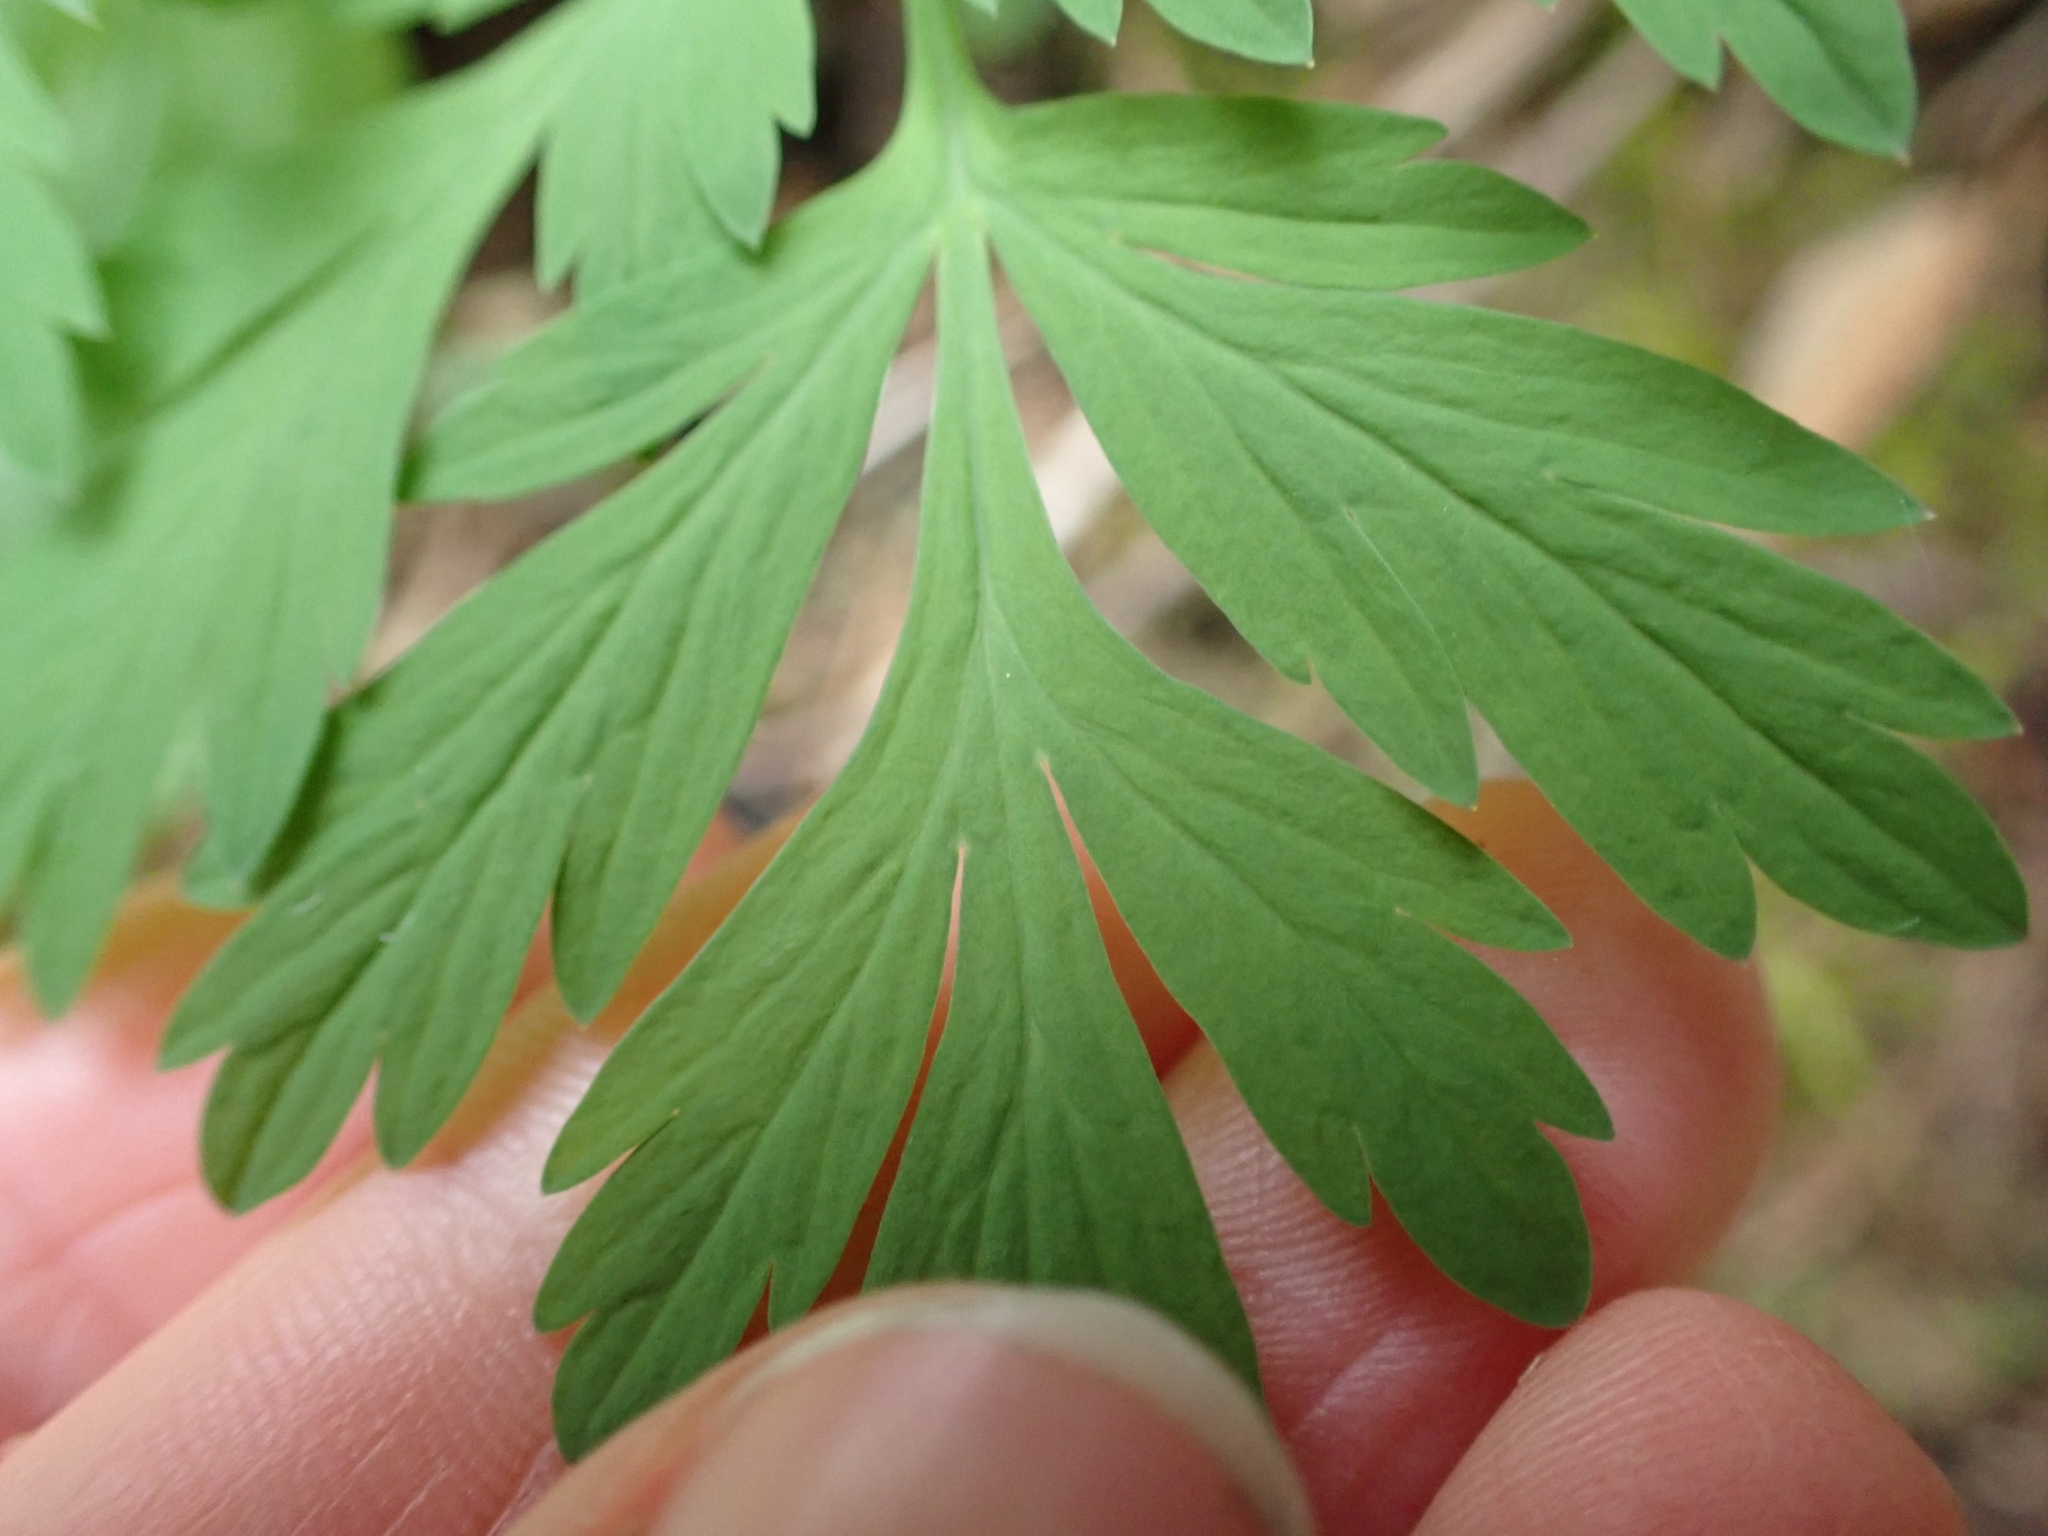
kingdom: Plantae
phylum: Tracheophyta
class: Magnoliopsida
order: Ranunculales
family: Papaveraceae
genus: Dicentra
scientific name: Dicentra formosa
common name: Bleeding-heart
